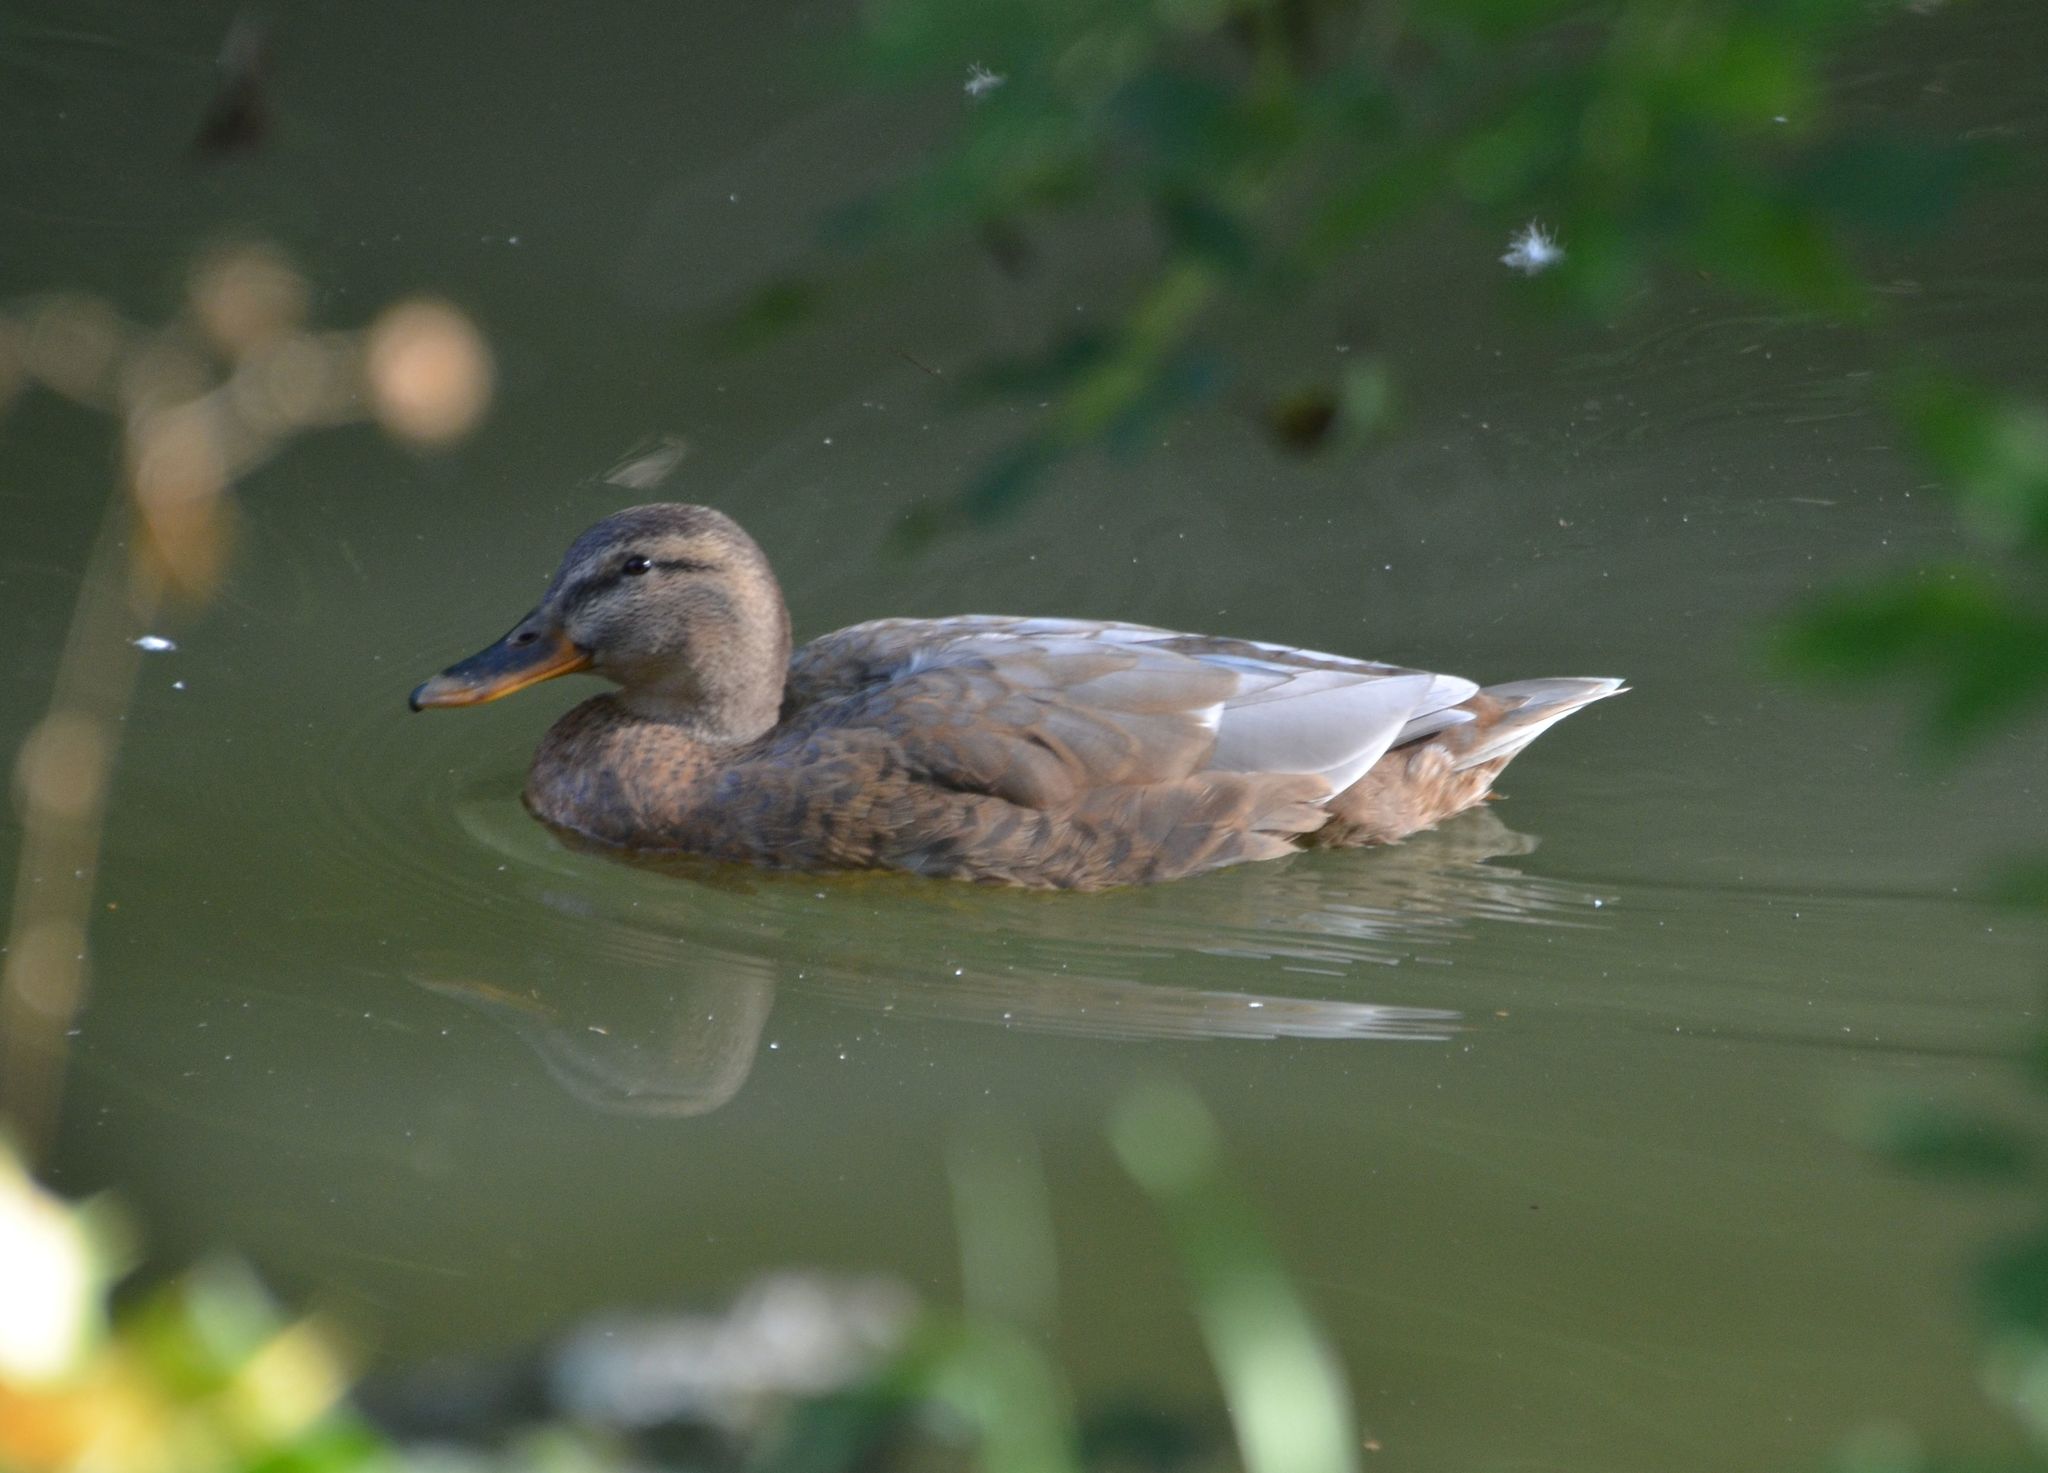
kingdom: Animalia
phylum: Chordata
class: Aves
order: Anseriformes
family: Anatidae
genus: Anas
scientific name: Anas platyrhynchos
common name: Mallard
